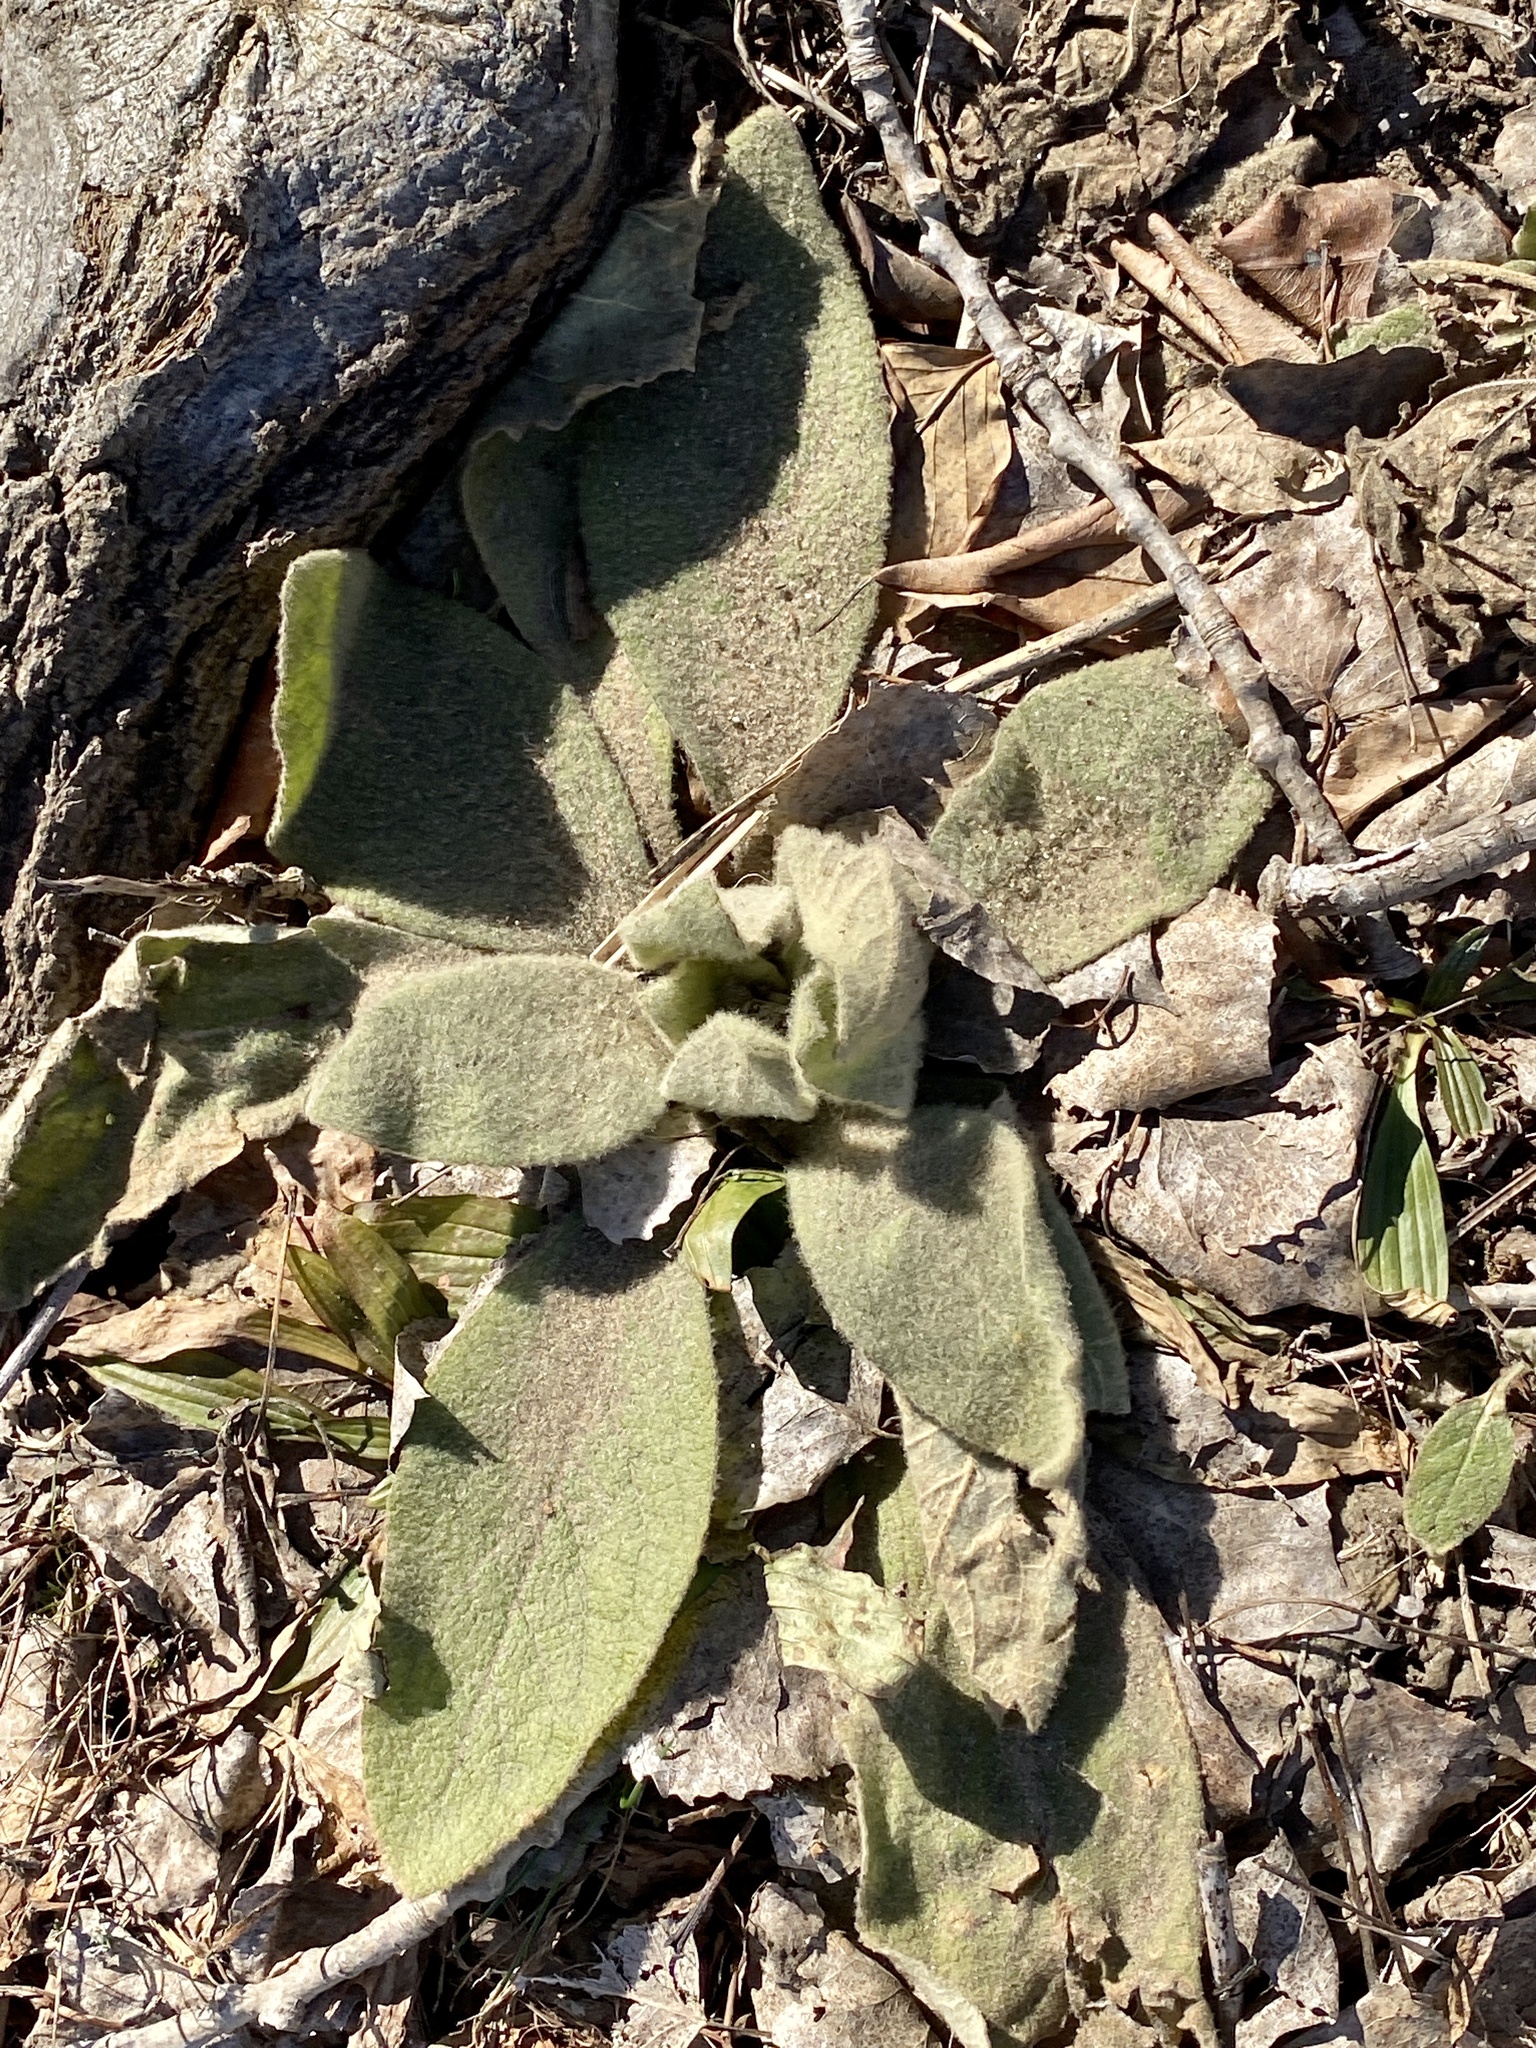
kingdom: Plantae
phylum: Tracheophyta
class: Magnoliopsida
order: Lamiales
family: Scrophulariaceae
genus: Verbascum
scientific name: Verbascum thapsus
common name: Common mullein
